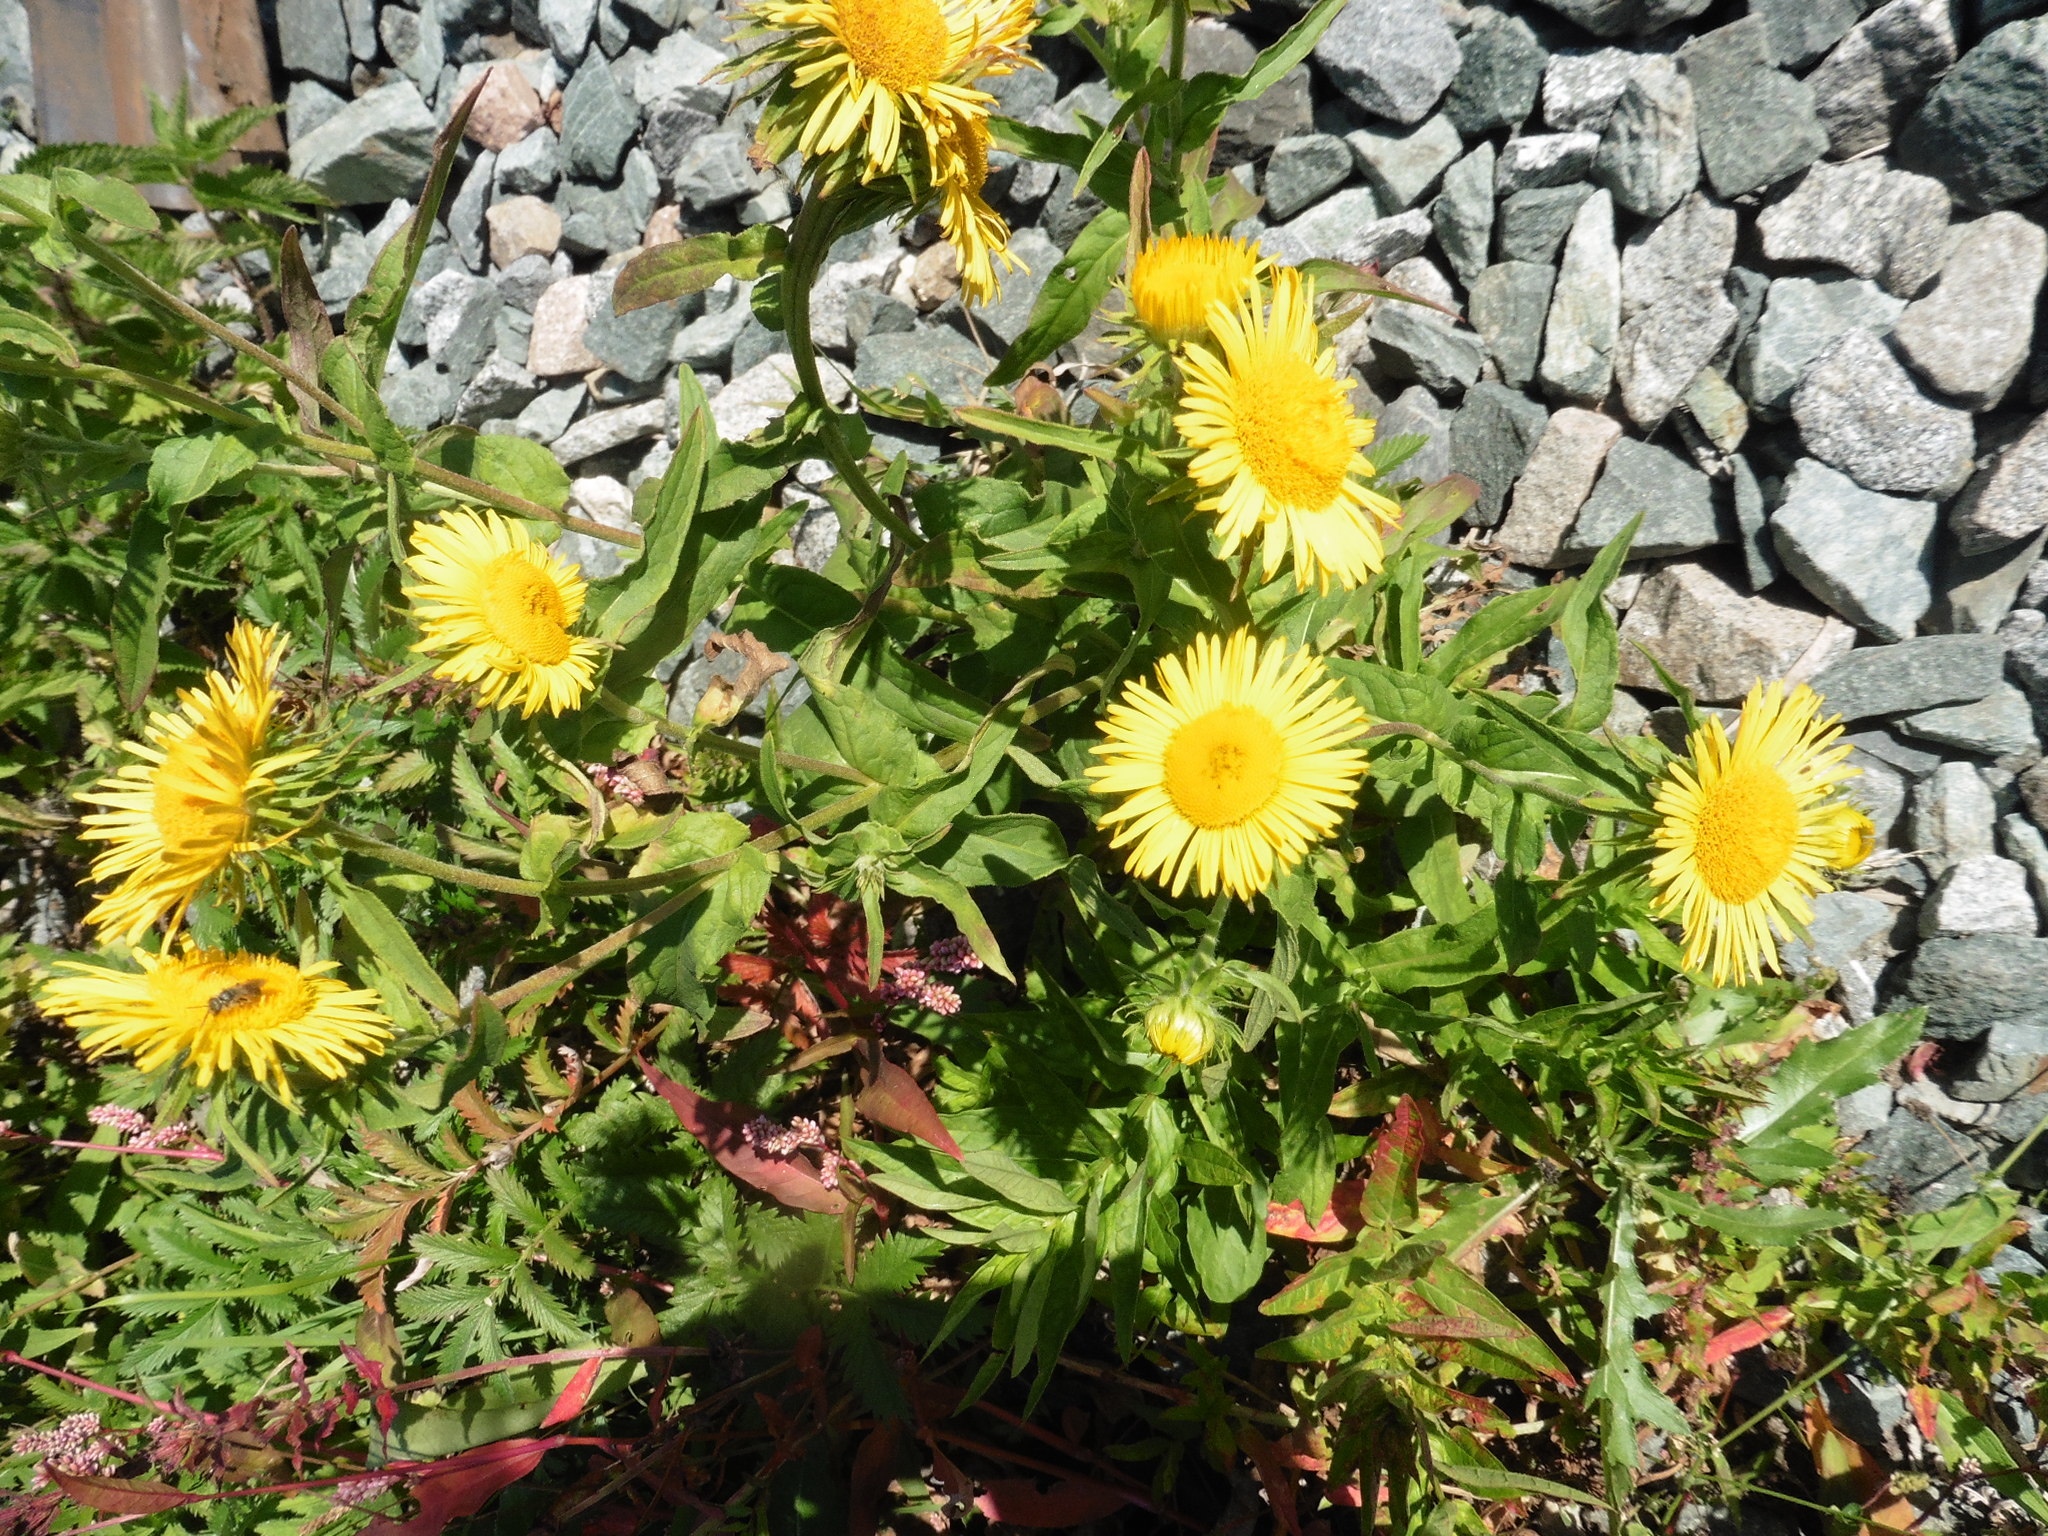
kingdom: Plantae
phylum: Tracheophyta
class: Magnoliopsida
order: Asterales
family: Asteraceae
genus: Pentanema
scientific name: Pentanema britannicum
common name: British elecampane
